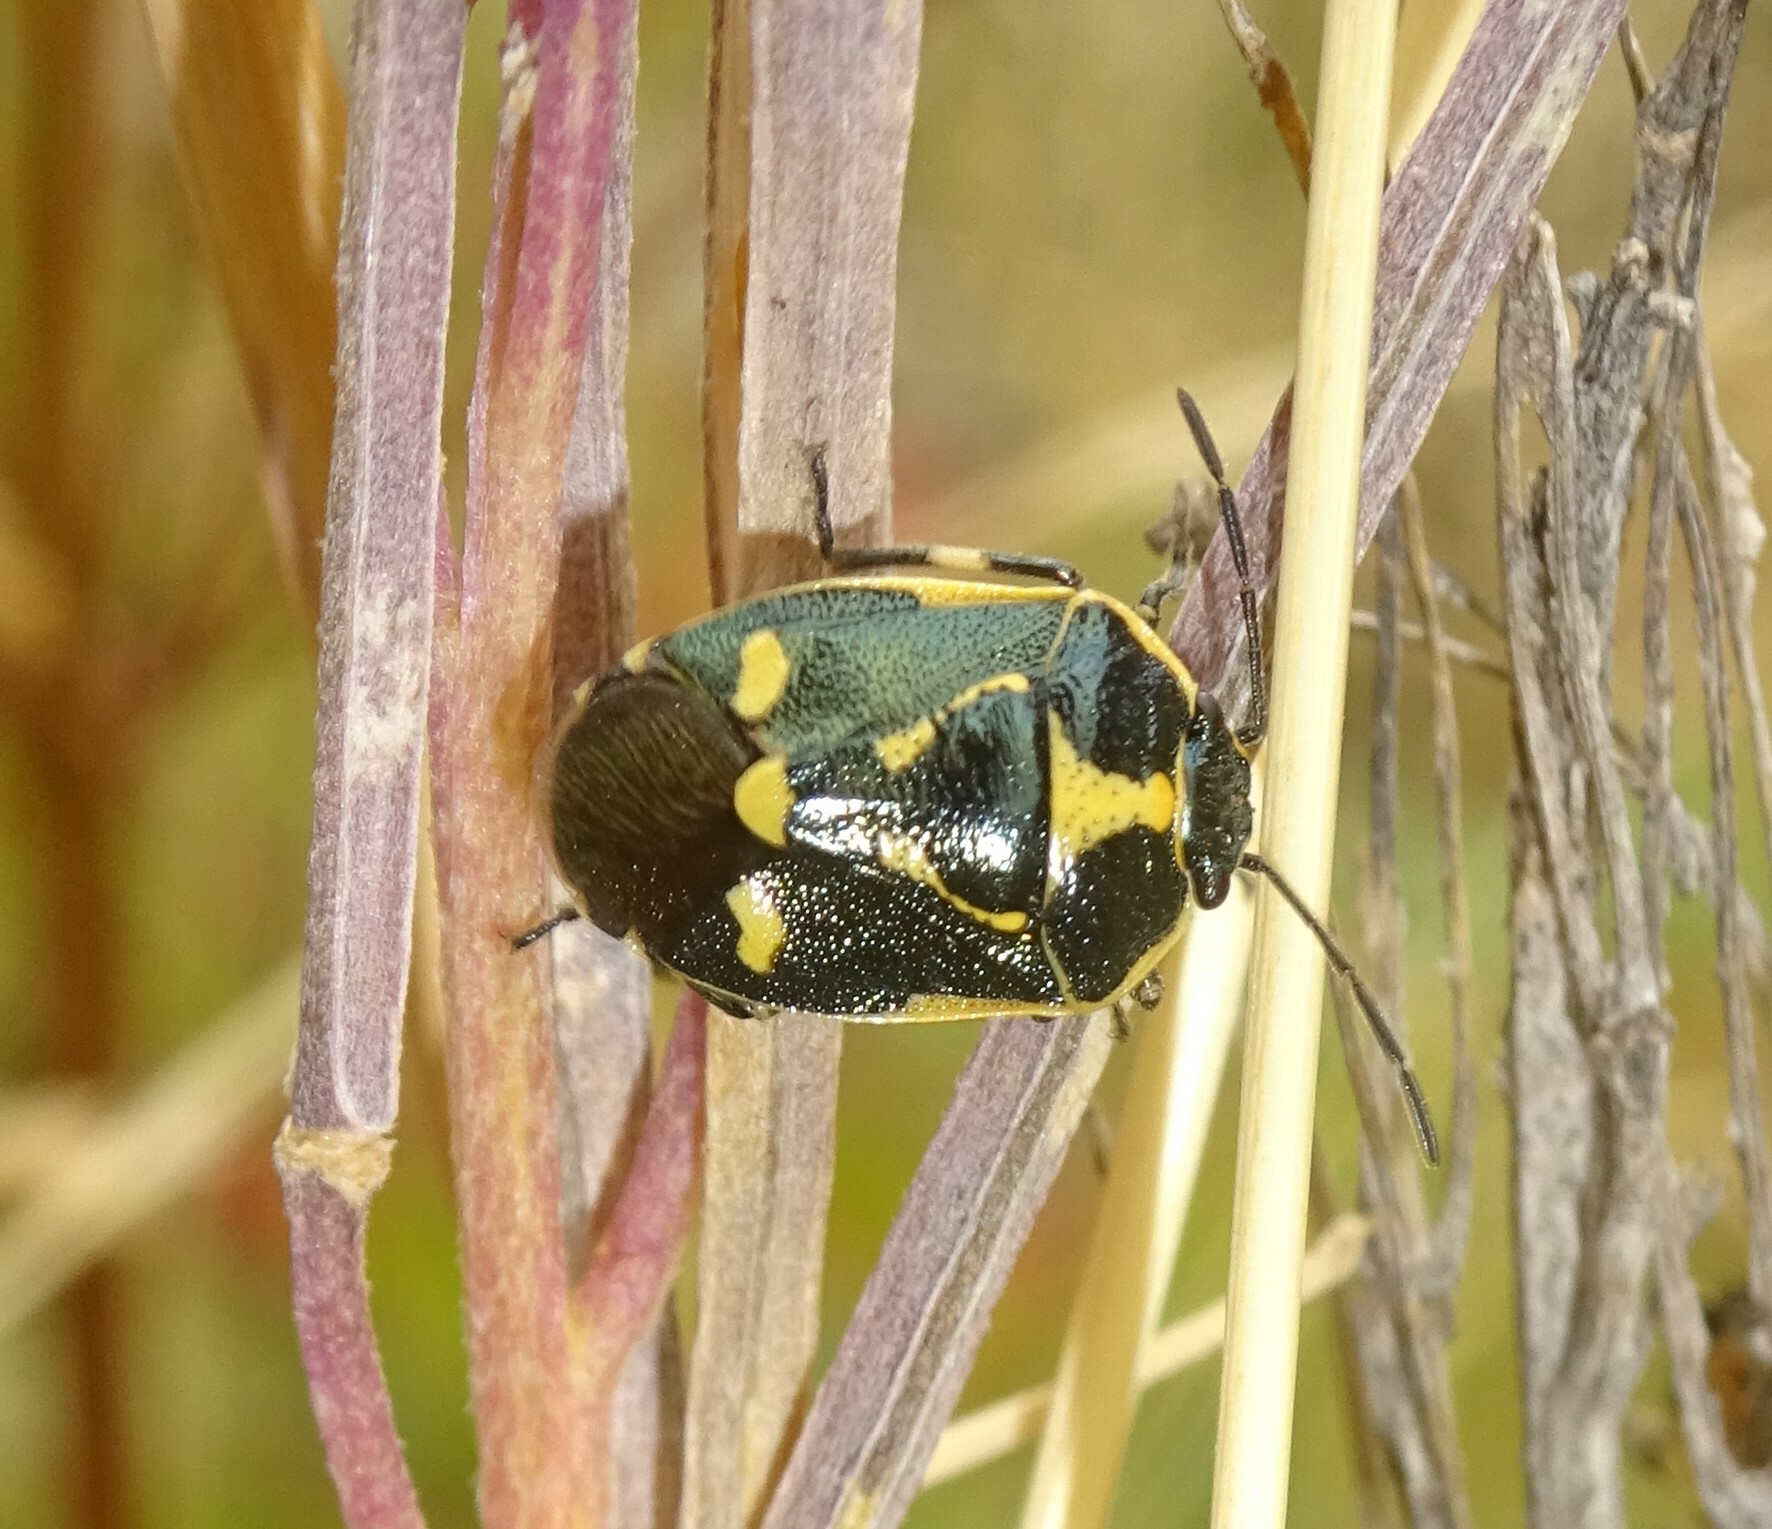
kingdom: Animalia
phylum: Arthropoda
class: Insecta
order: Hemiptera
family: Pentatomidae
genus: Eurydema
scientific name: Eurydema oleracea
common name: Cabbage bug
